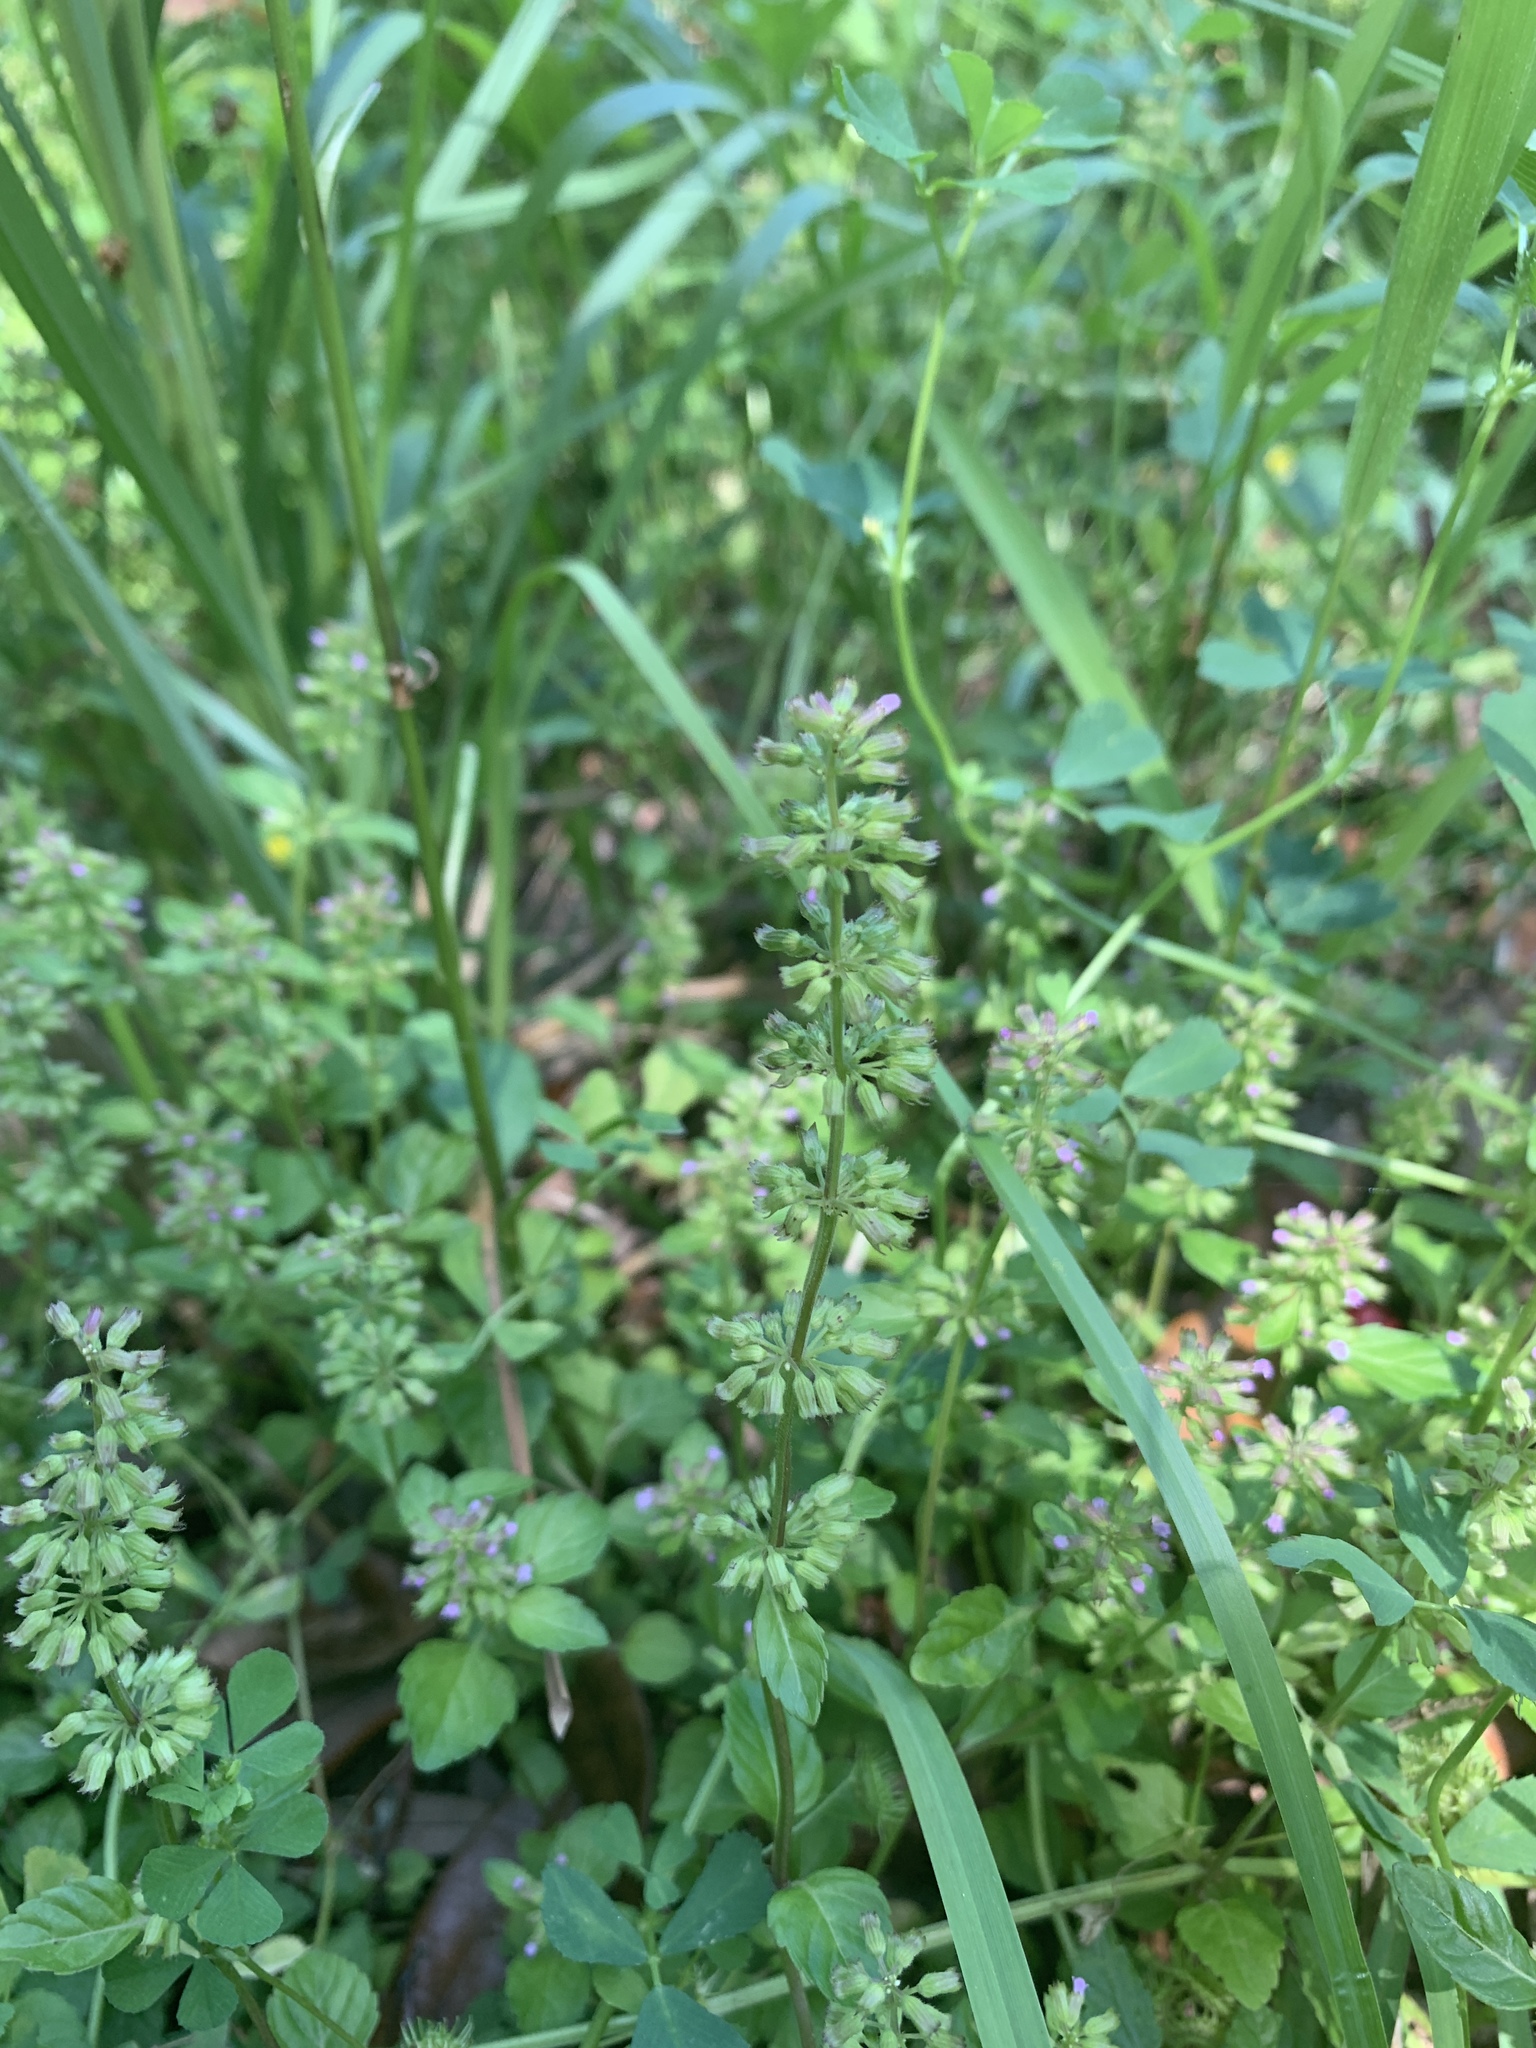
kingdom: Plantae
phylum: Tracheophyta
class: Magnoliopsida
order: Lamiales
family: Lamiaceae
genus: Clinopodium
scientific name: Clinopodium gracile
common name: Slender wild basil
